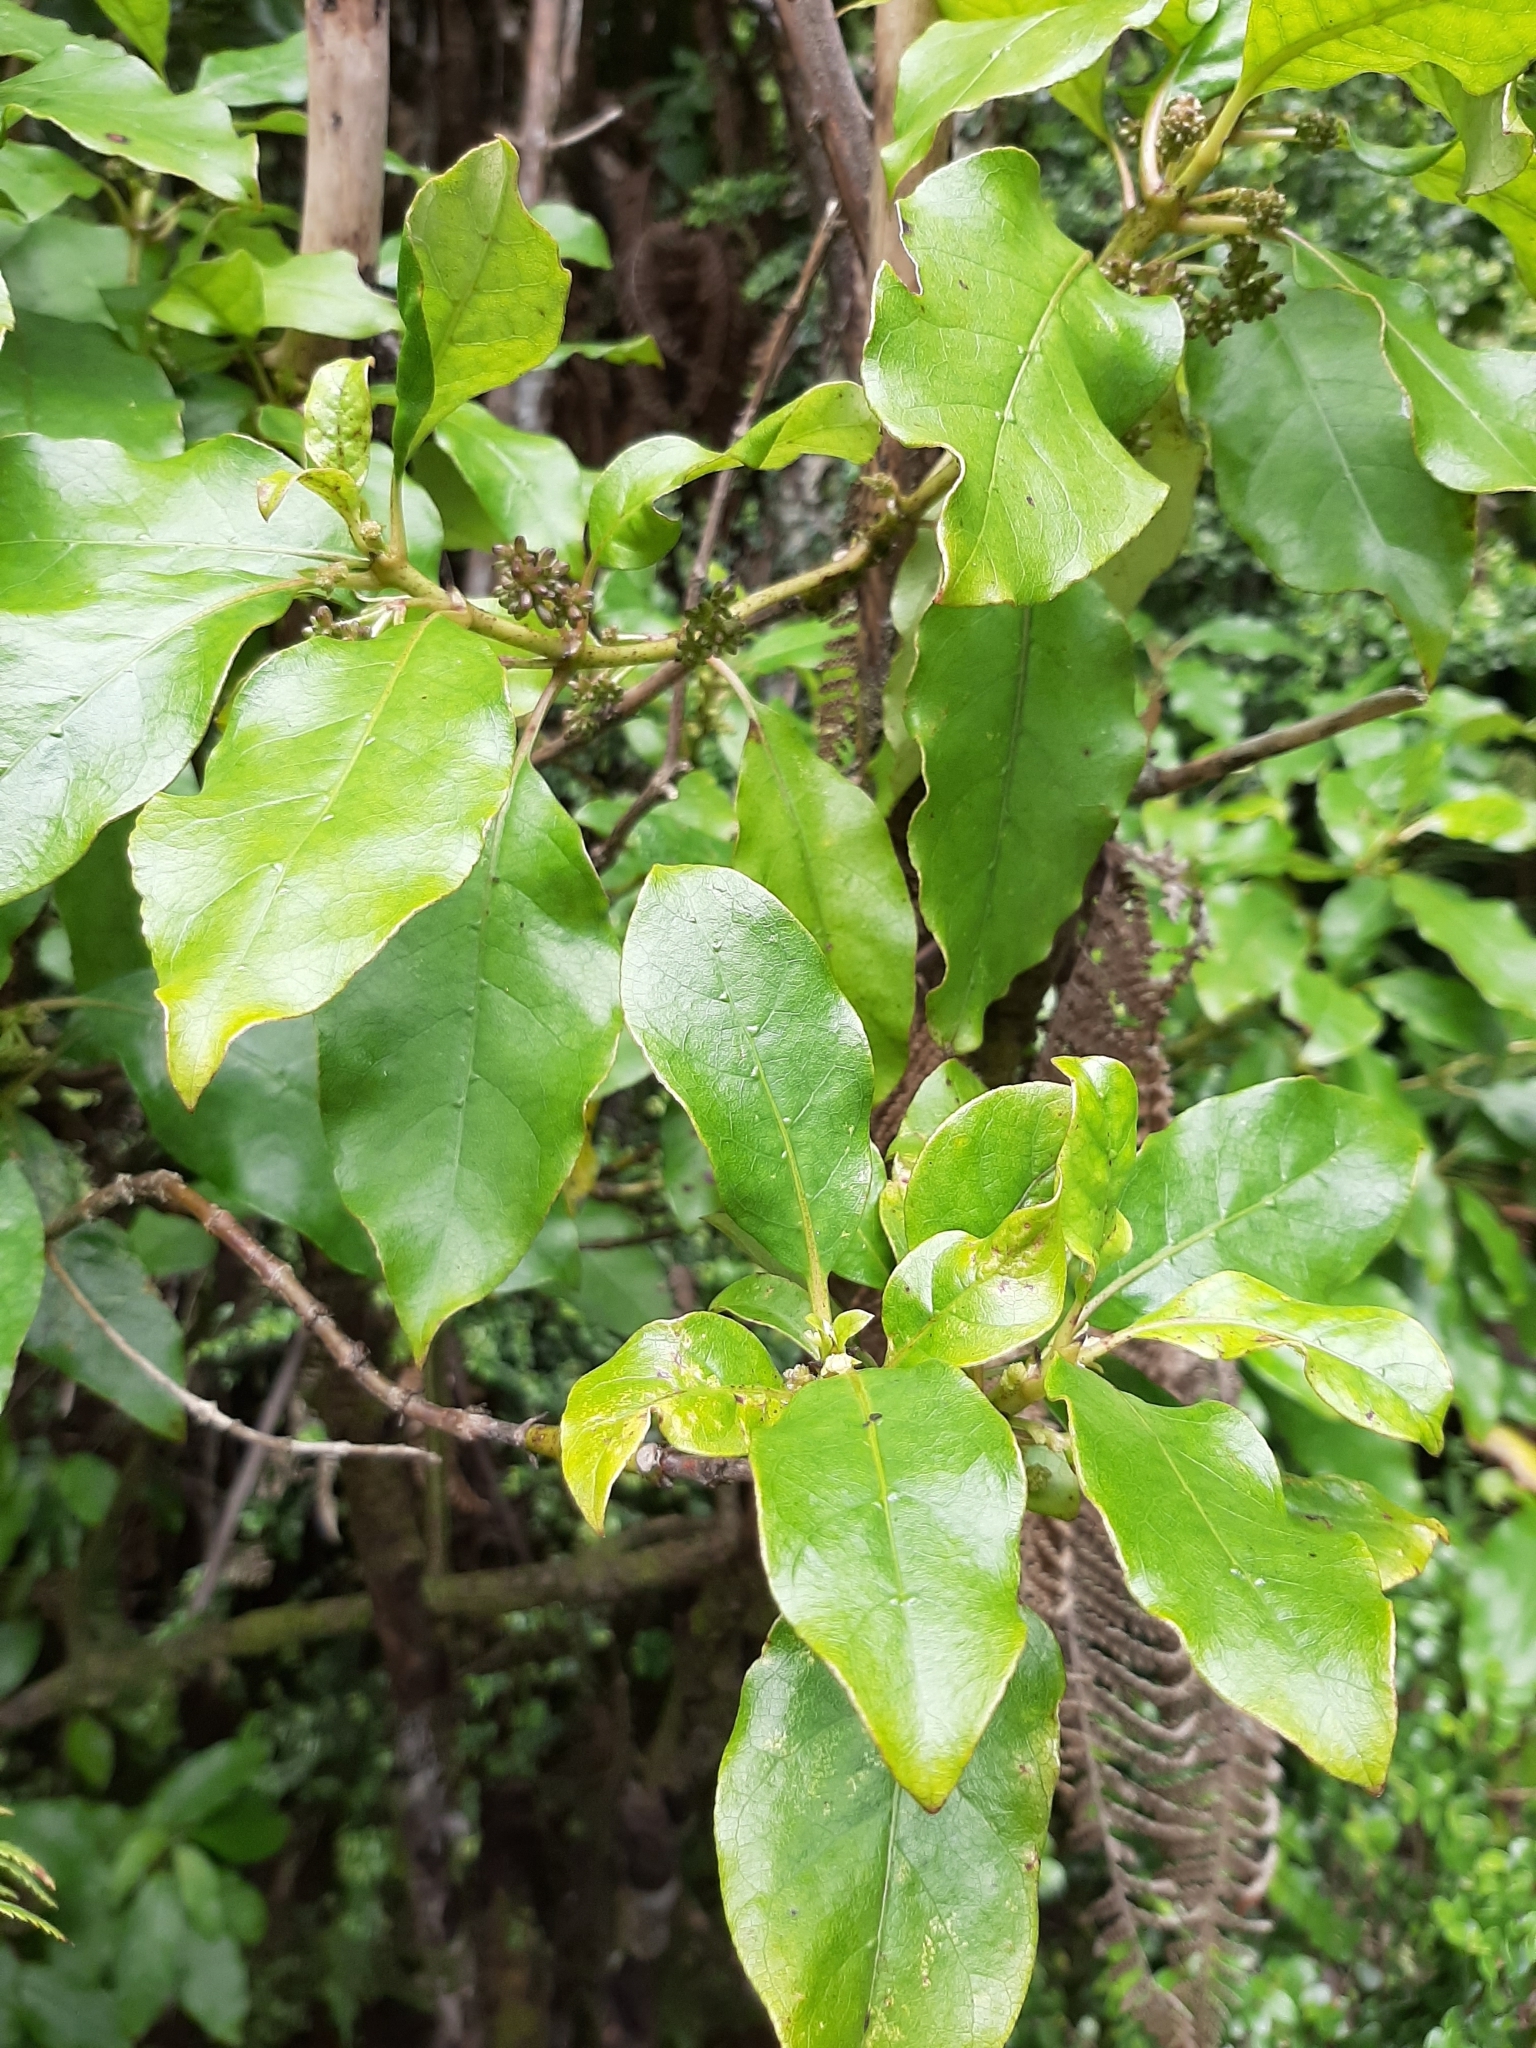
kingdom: Plantae
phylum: Tracheophyta
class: Magnoliopsida
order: Gentianales
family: Rubiaceae
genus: Coprosma
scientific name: Coprosma autumnalis
